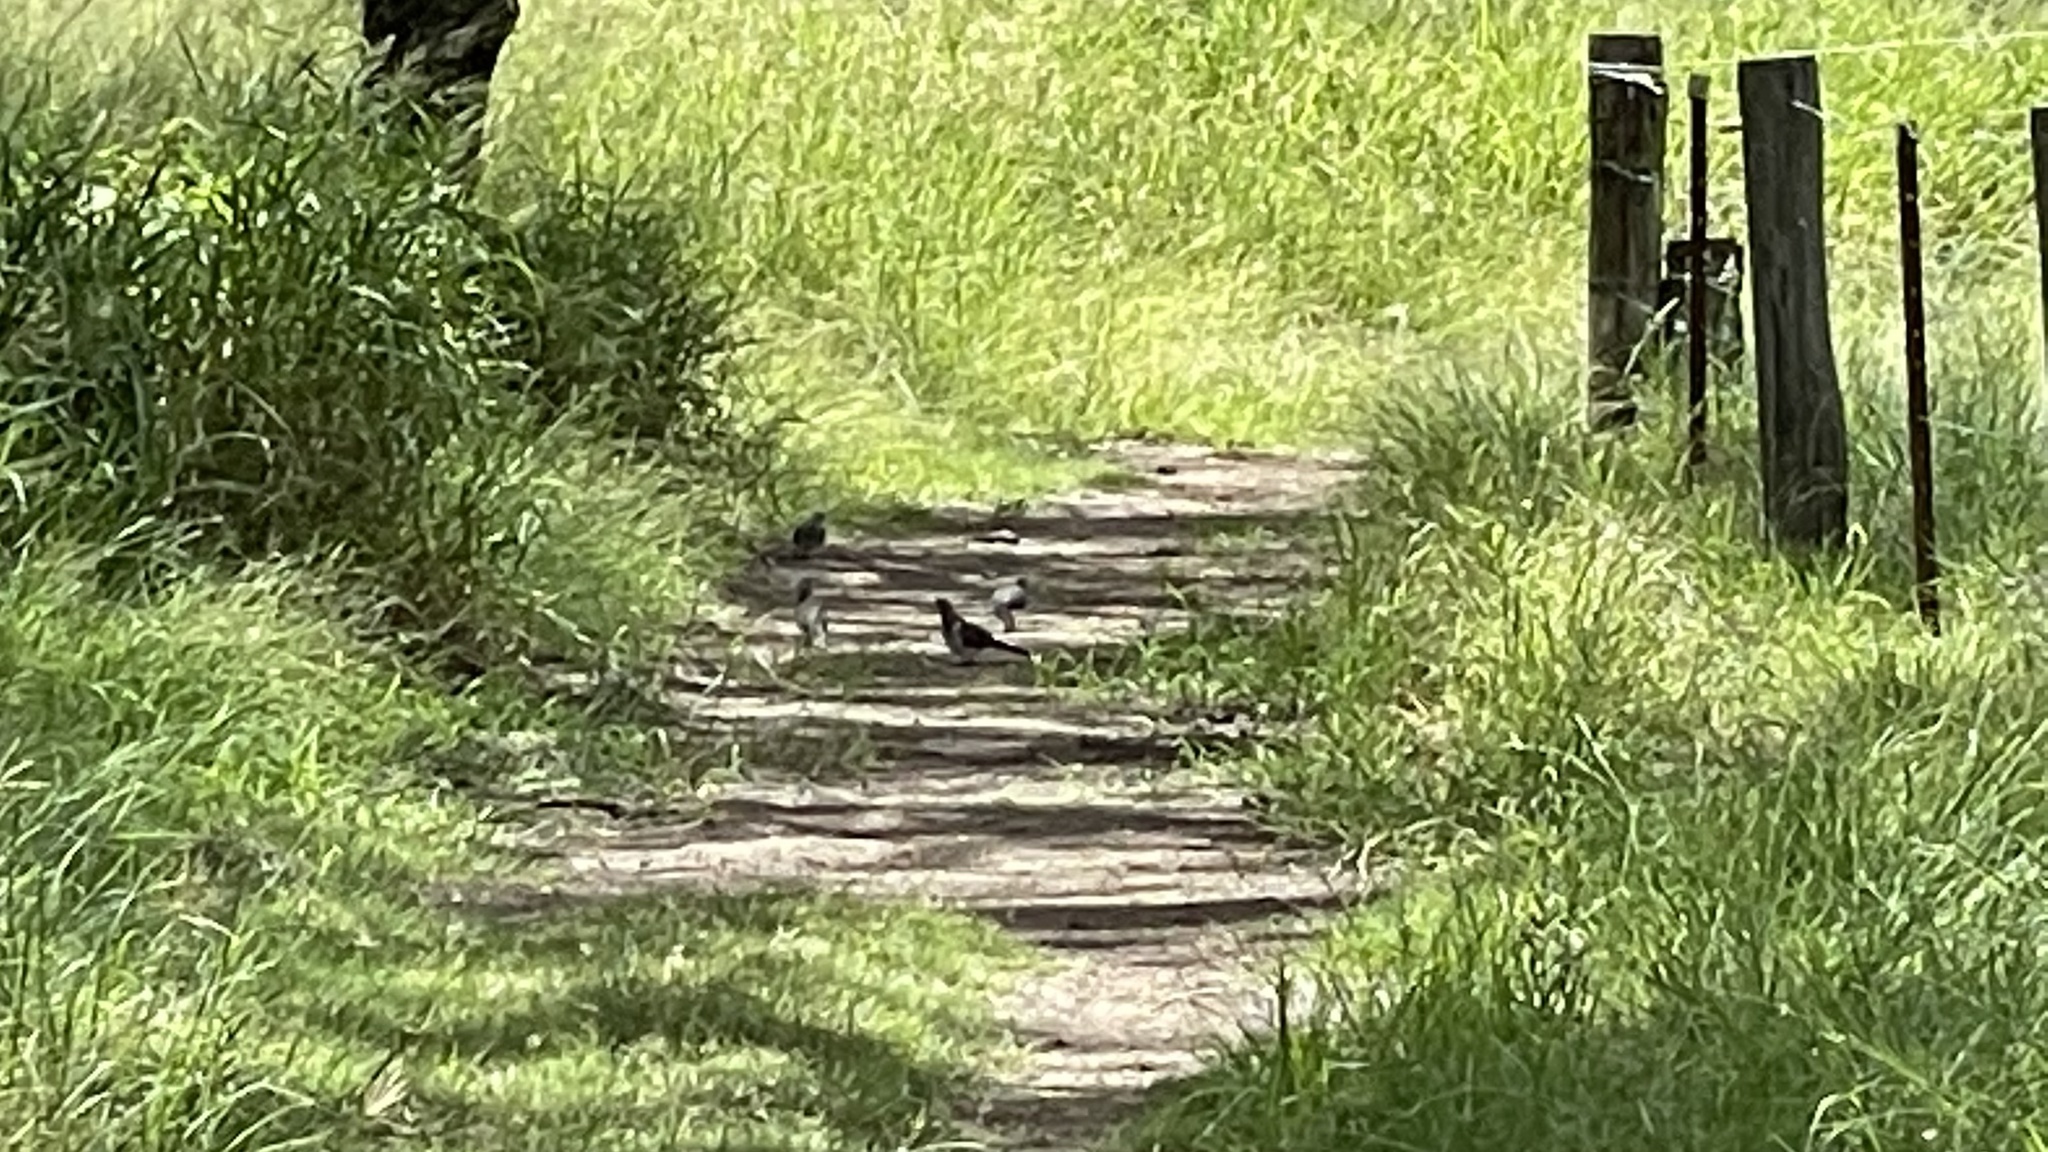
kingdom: Animalia
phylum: Chordata
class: Aves
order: Columbiformes
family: Columbidae
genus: Geopelia
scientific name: Geopelia humeralis
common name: Bar-shouldered dove
